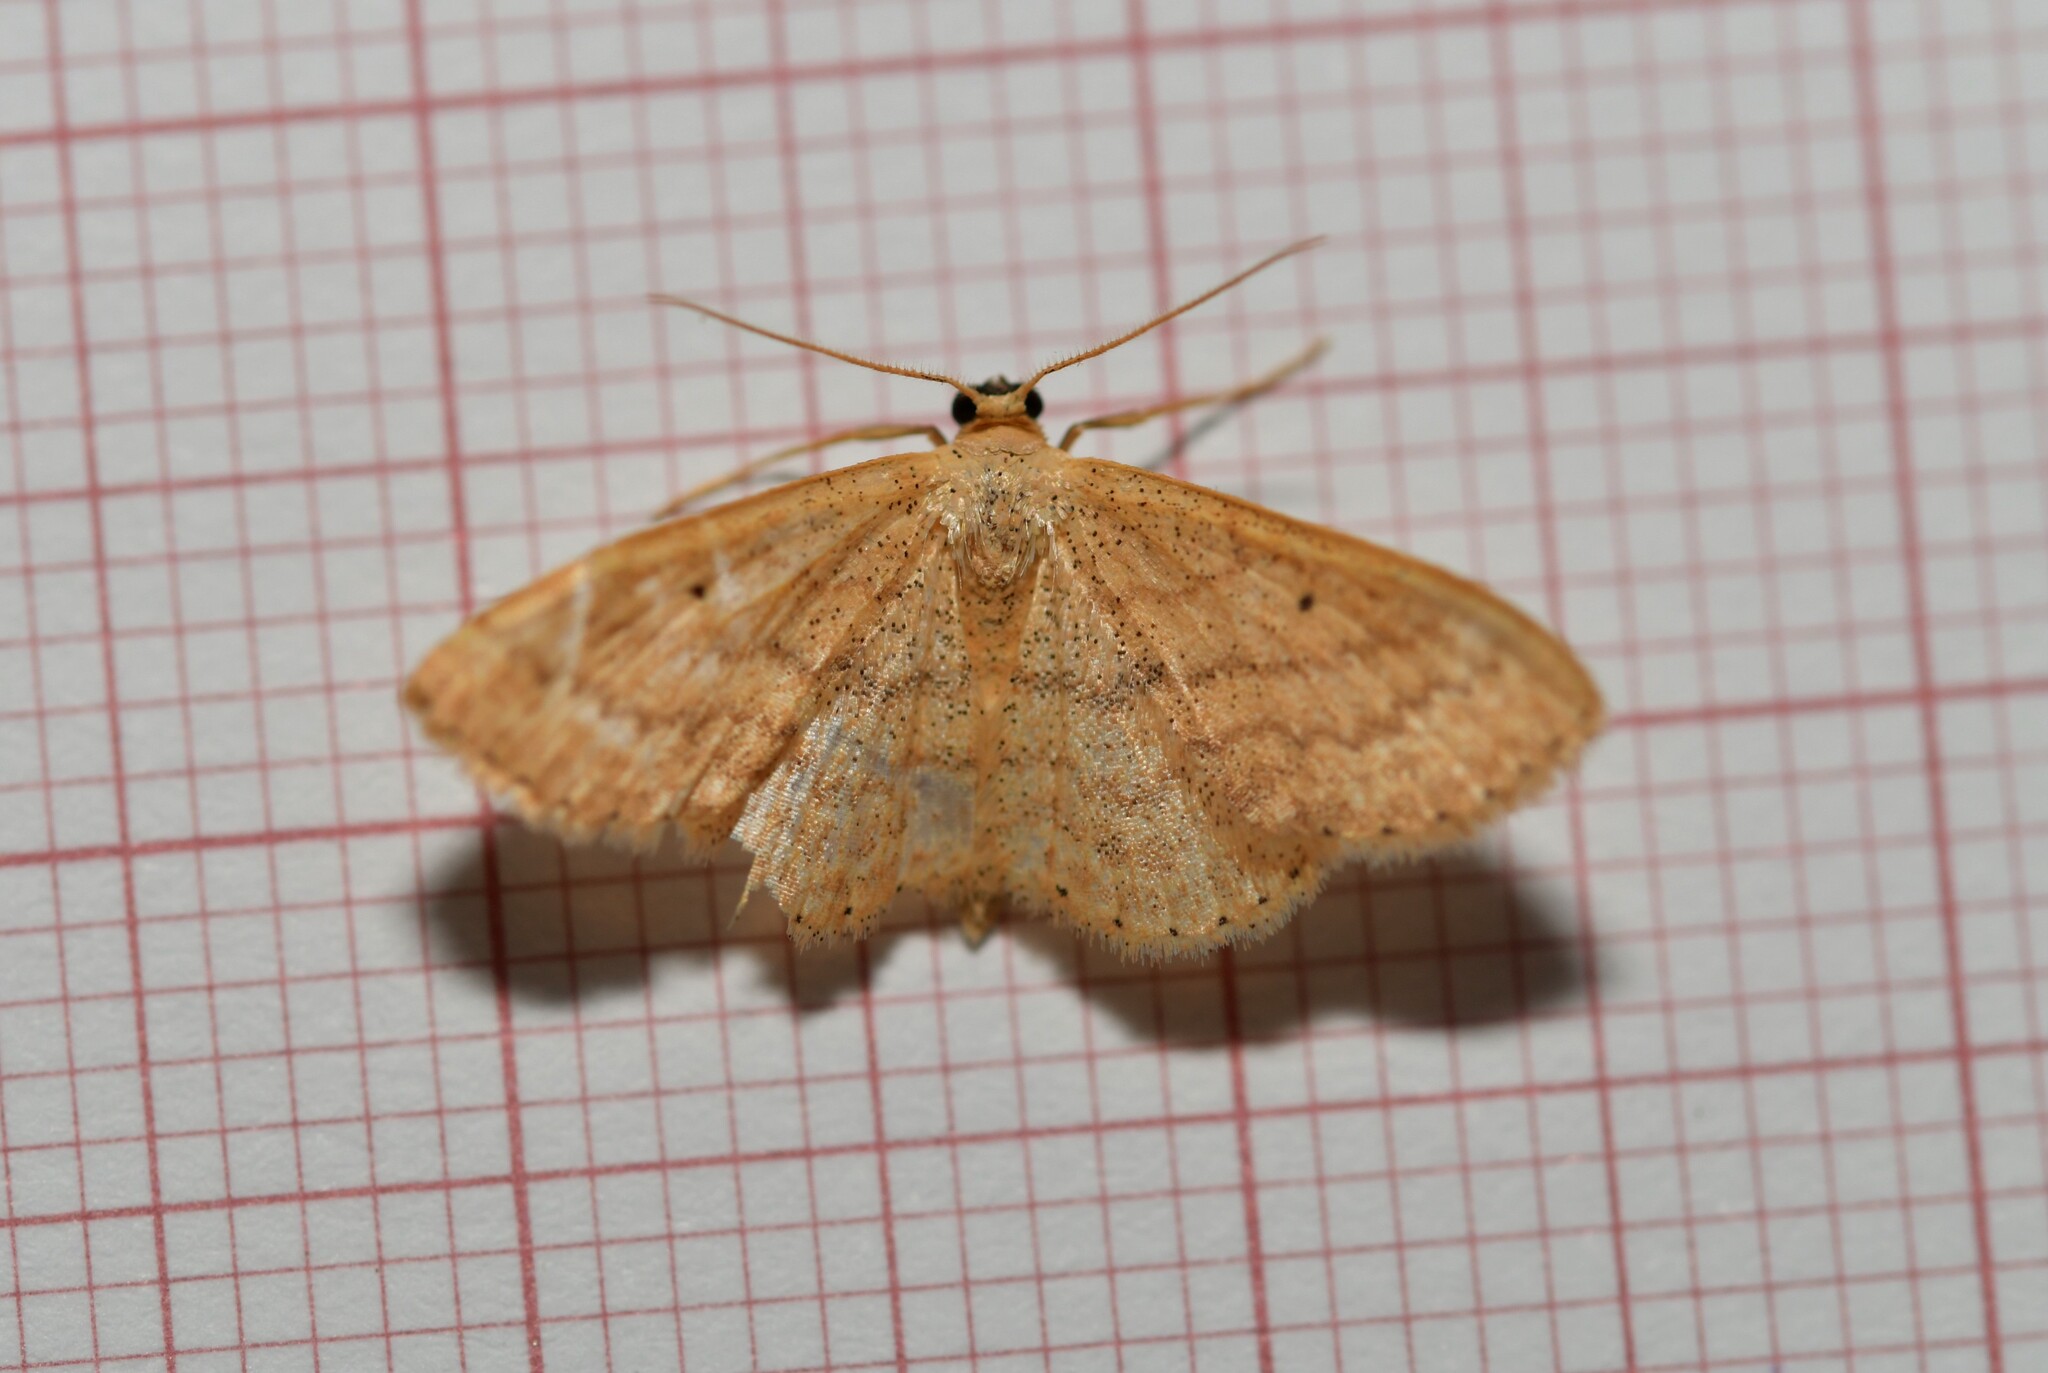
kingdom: Animalia
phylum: Arthropoda
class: Insecta
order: Lepidoptera
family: Geometridae
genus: Scopula
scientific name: Scopula minorata
